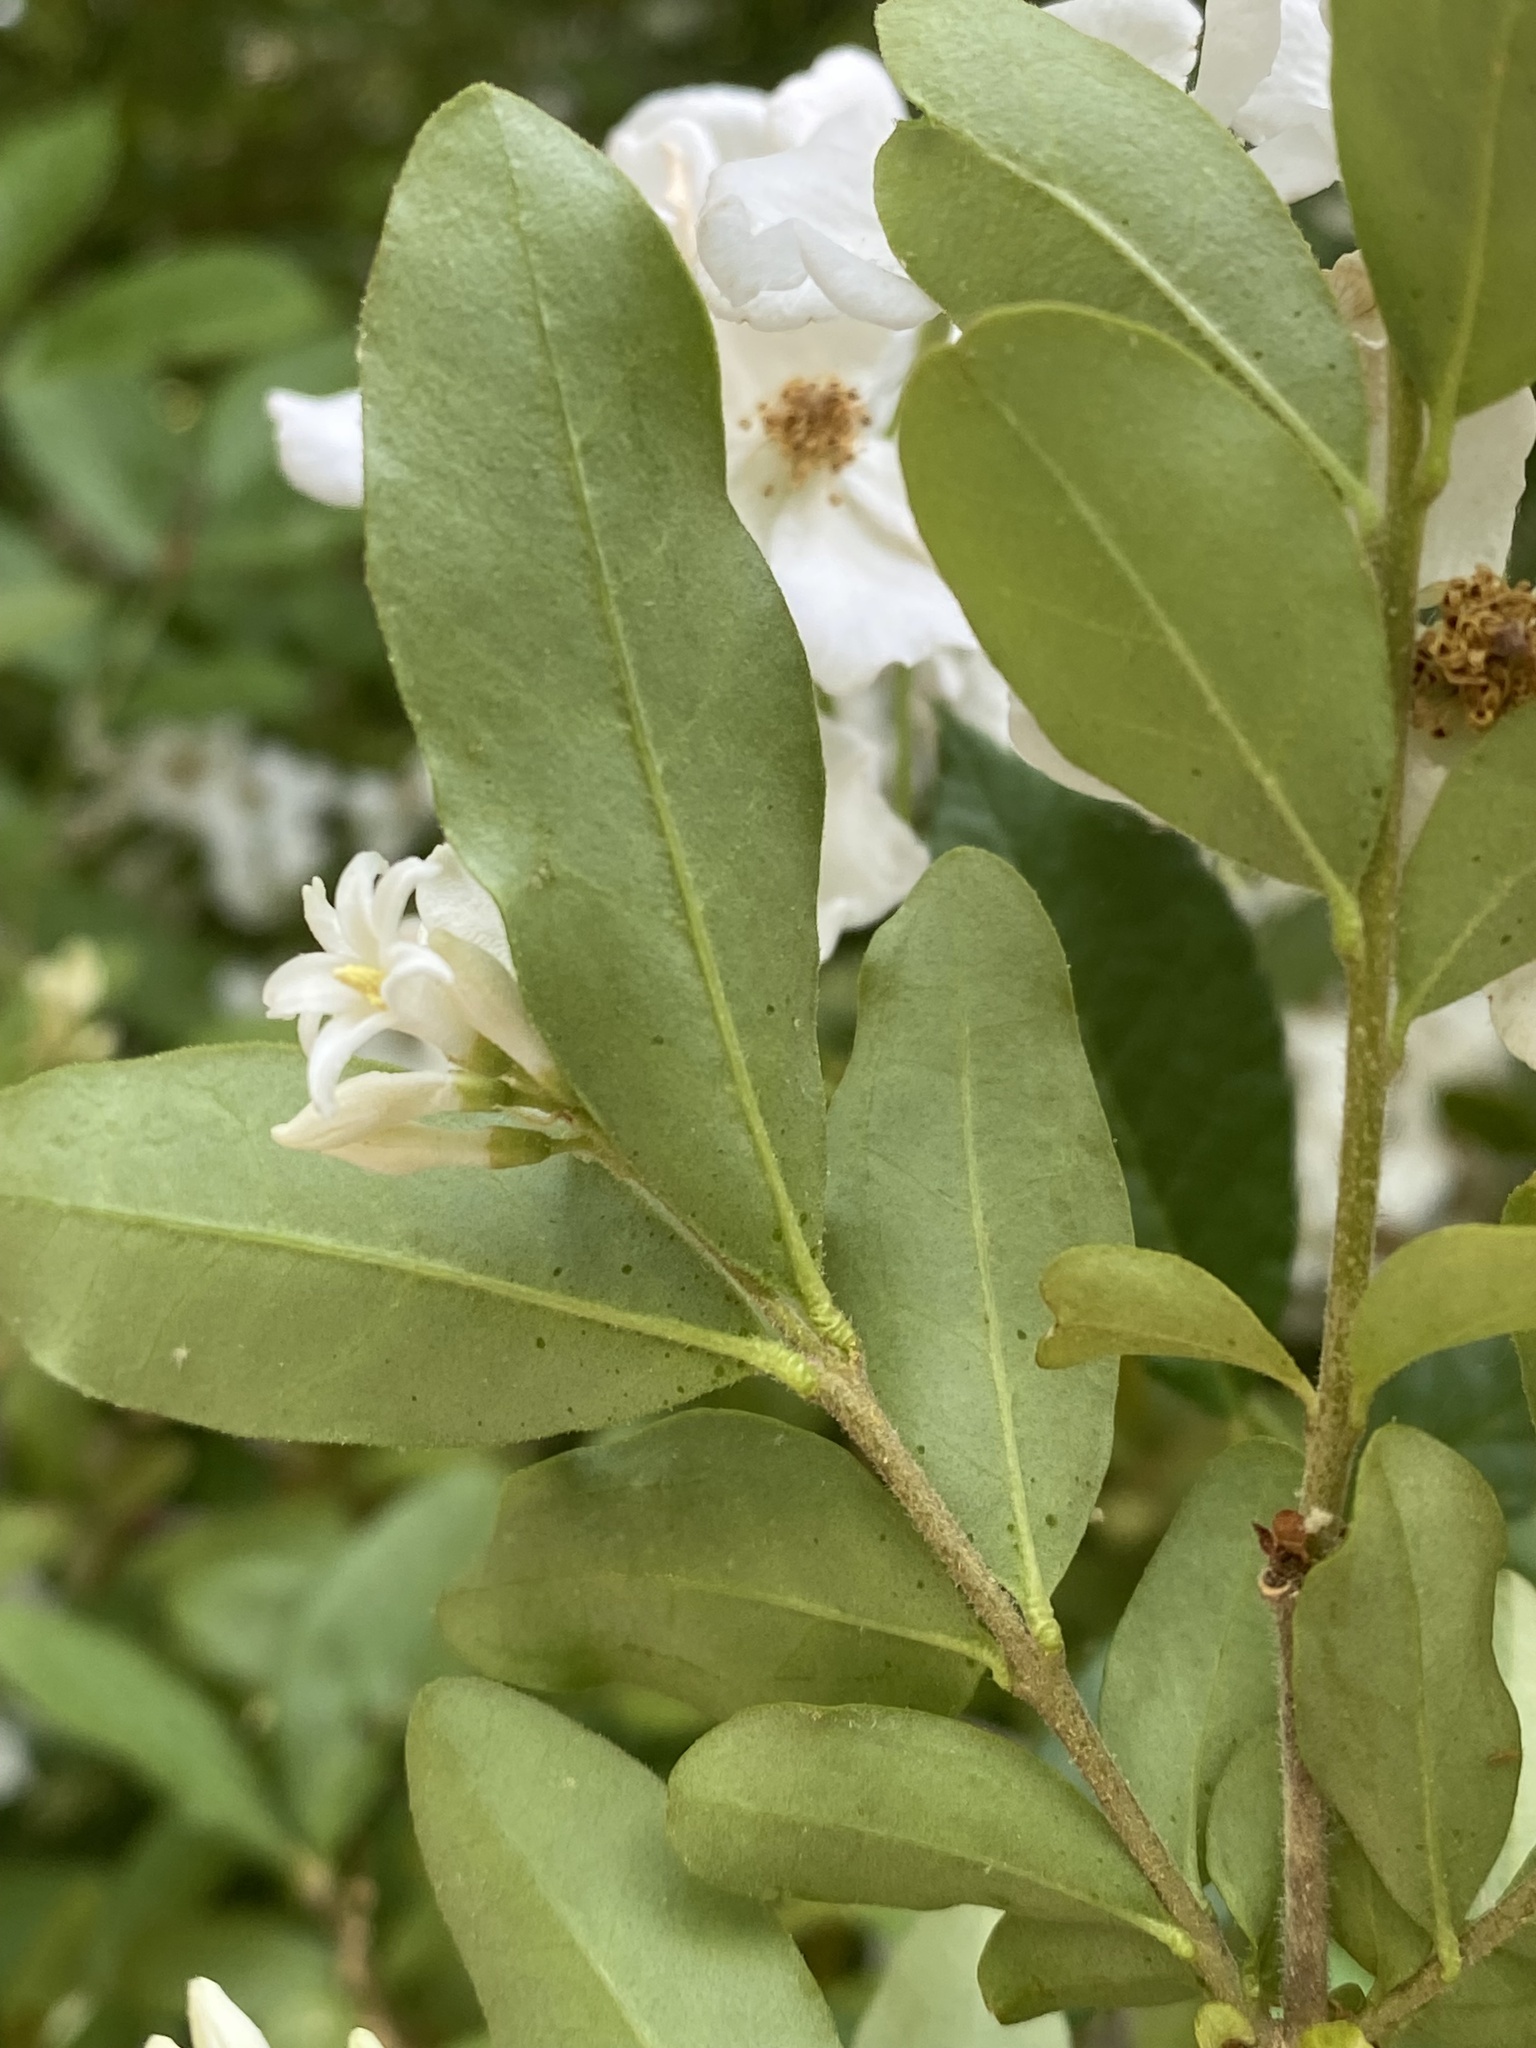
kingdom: Plantae
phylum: Tracheophyta
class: Magnoliopsida
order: Lamiales
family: Oleaceae
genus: Ligustrum
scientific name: Ligustrum obtusifolium
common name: Border privet
